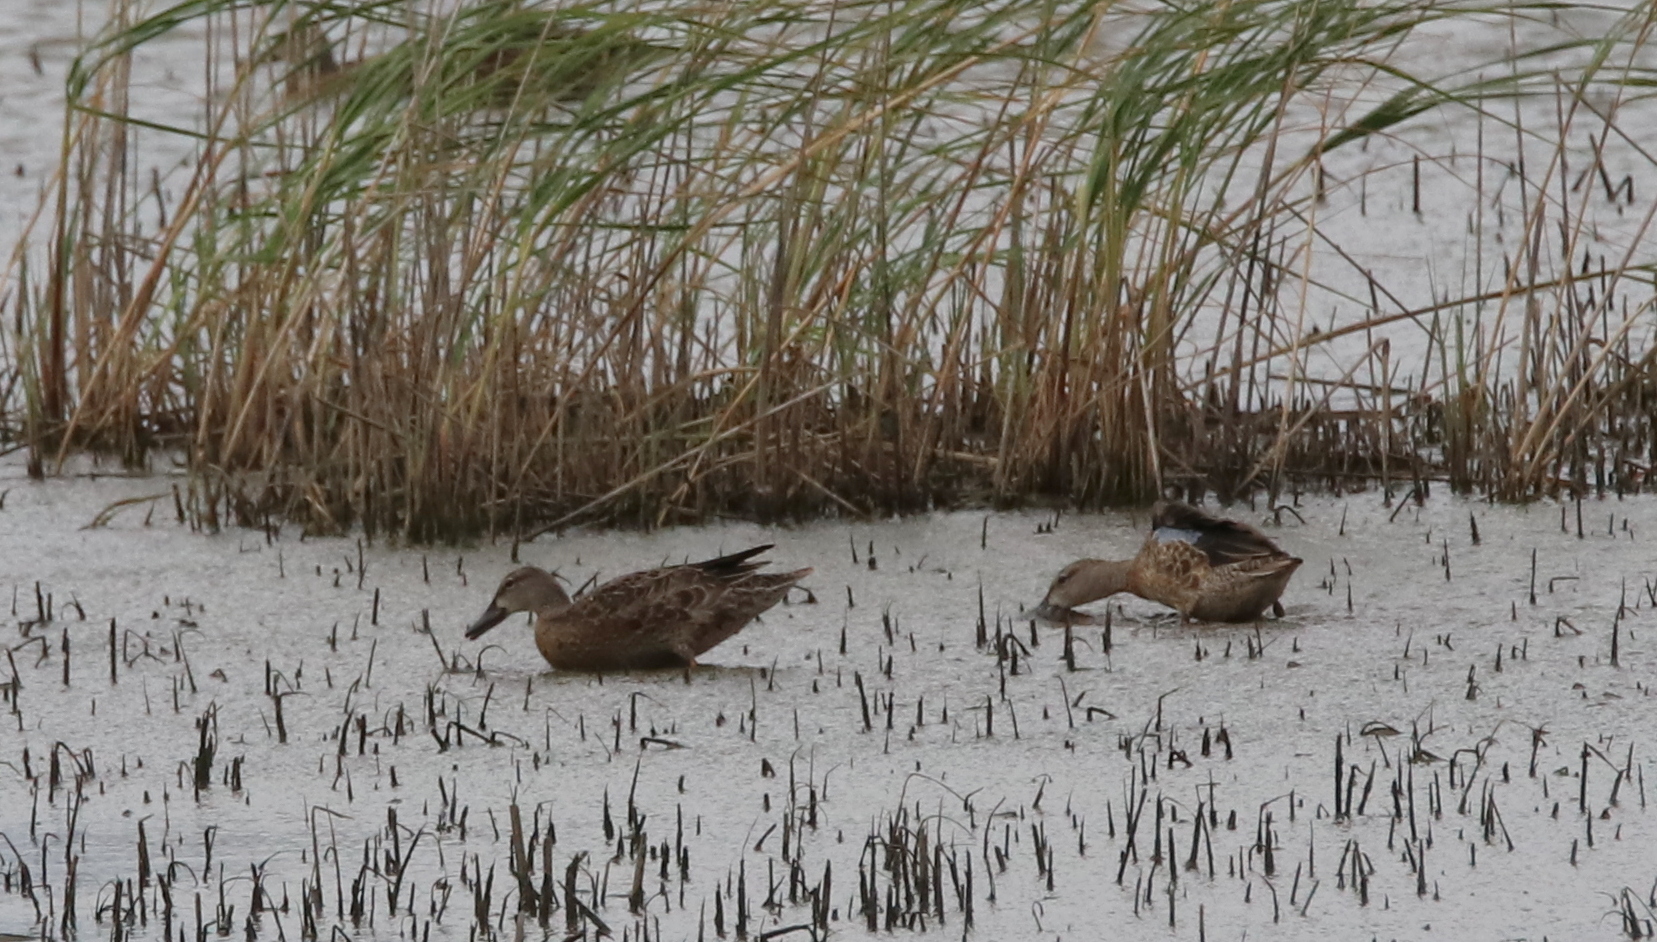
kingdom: Animalia
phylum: Chordata
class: Aves
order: Anseriformes
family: Anatidae
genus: Spatula
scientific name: Spatula discors
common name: Blue-winged teal
